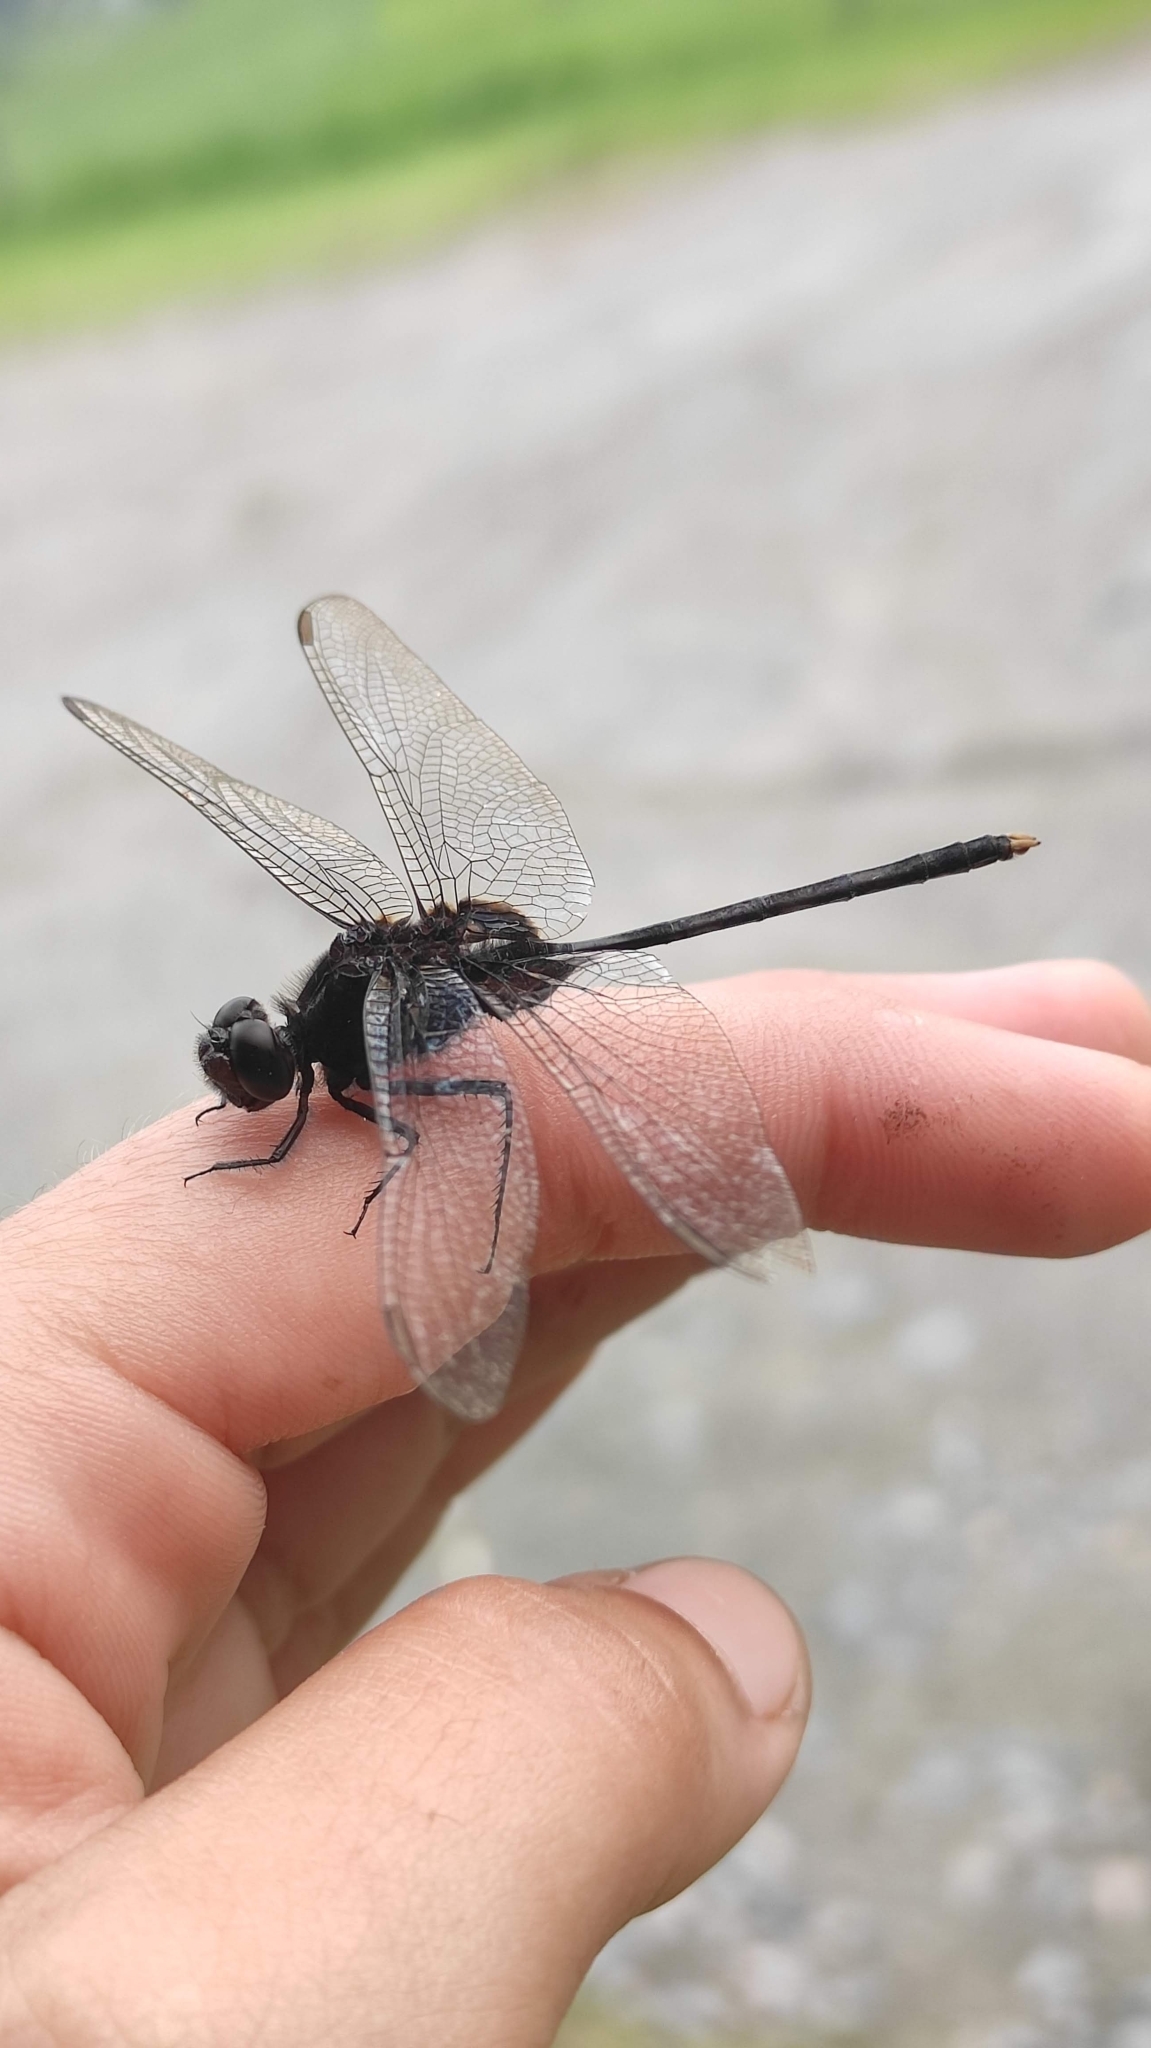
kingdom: Animalia
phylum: Arthropoda
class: Insecta
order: Odonata
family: Libellulidae
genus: Erythemis
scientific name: Erythemis plebeja
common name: Pin-tailed pondhawk
